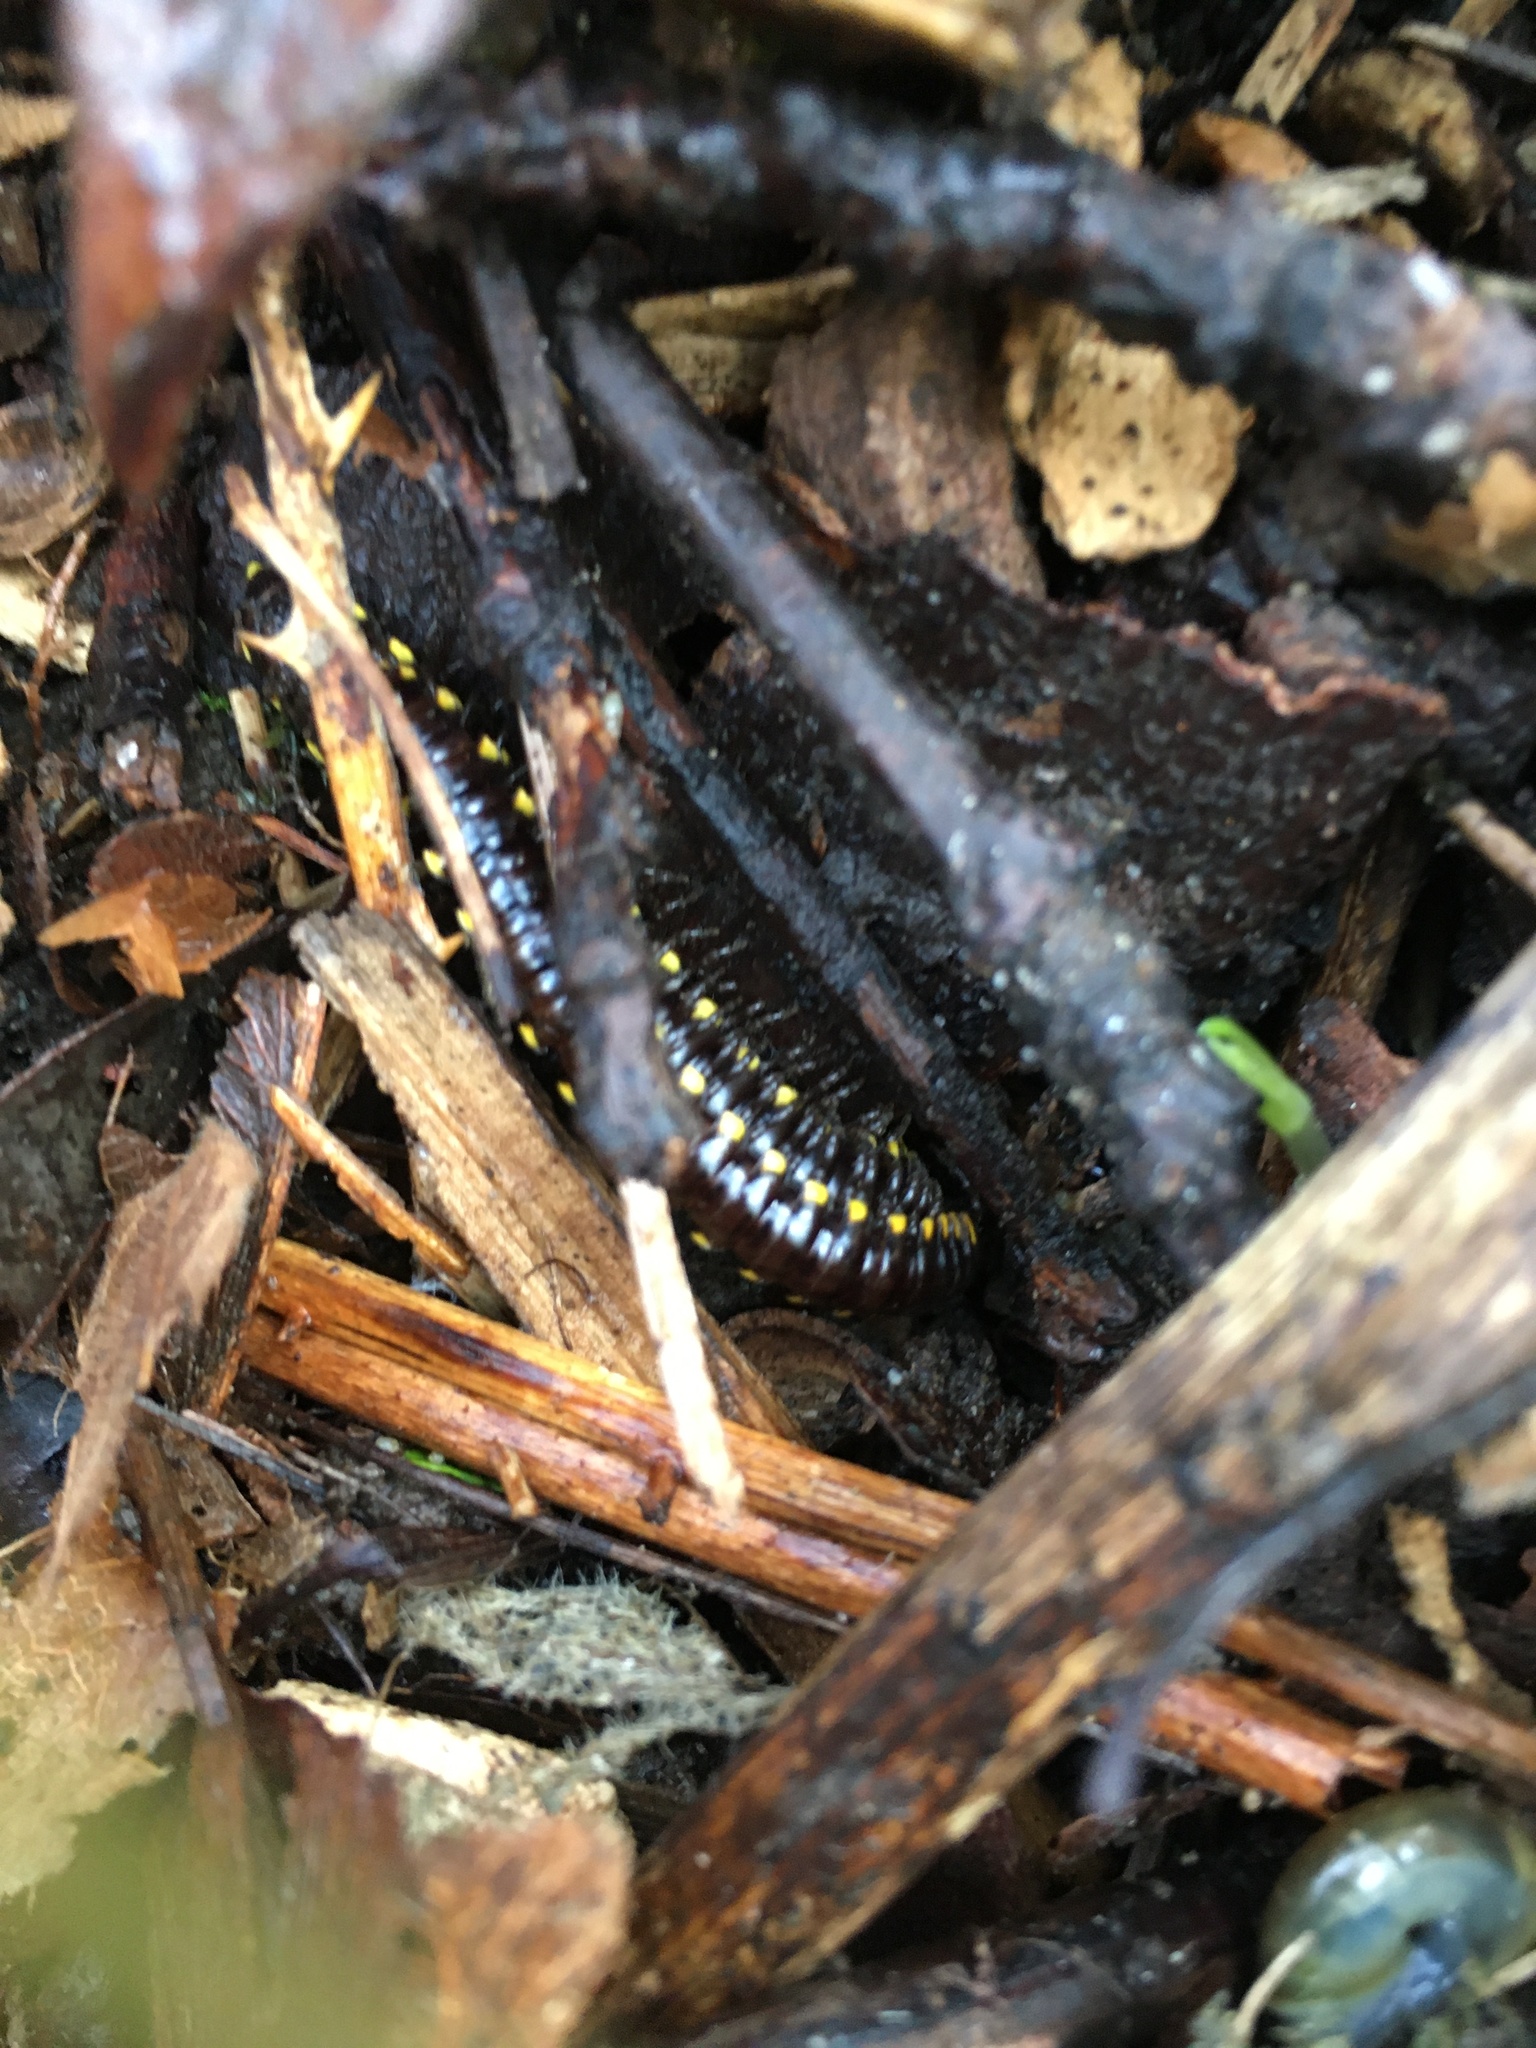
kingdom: Animalia
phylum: Arthropoda
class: Diplopoda
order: Polydesmida
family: Xystodesmidae
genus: Harpaphe
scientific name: Harpaphe haydeniana
